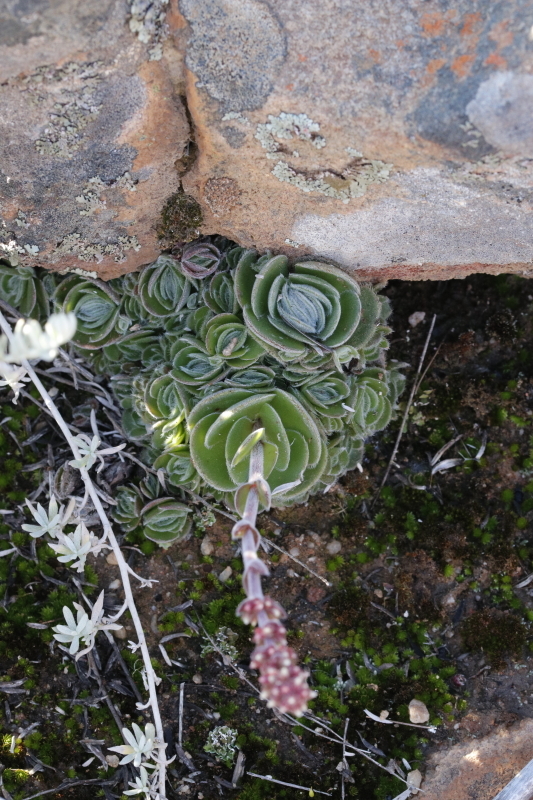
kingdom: Plantae
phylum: Tracheophyta
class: Magnoliopsida
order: Saxifragales
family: Crassulaceae
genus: Crassula
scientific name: Crassula tomentosa
